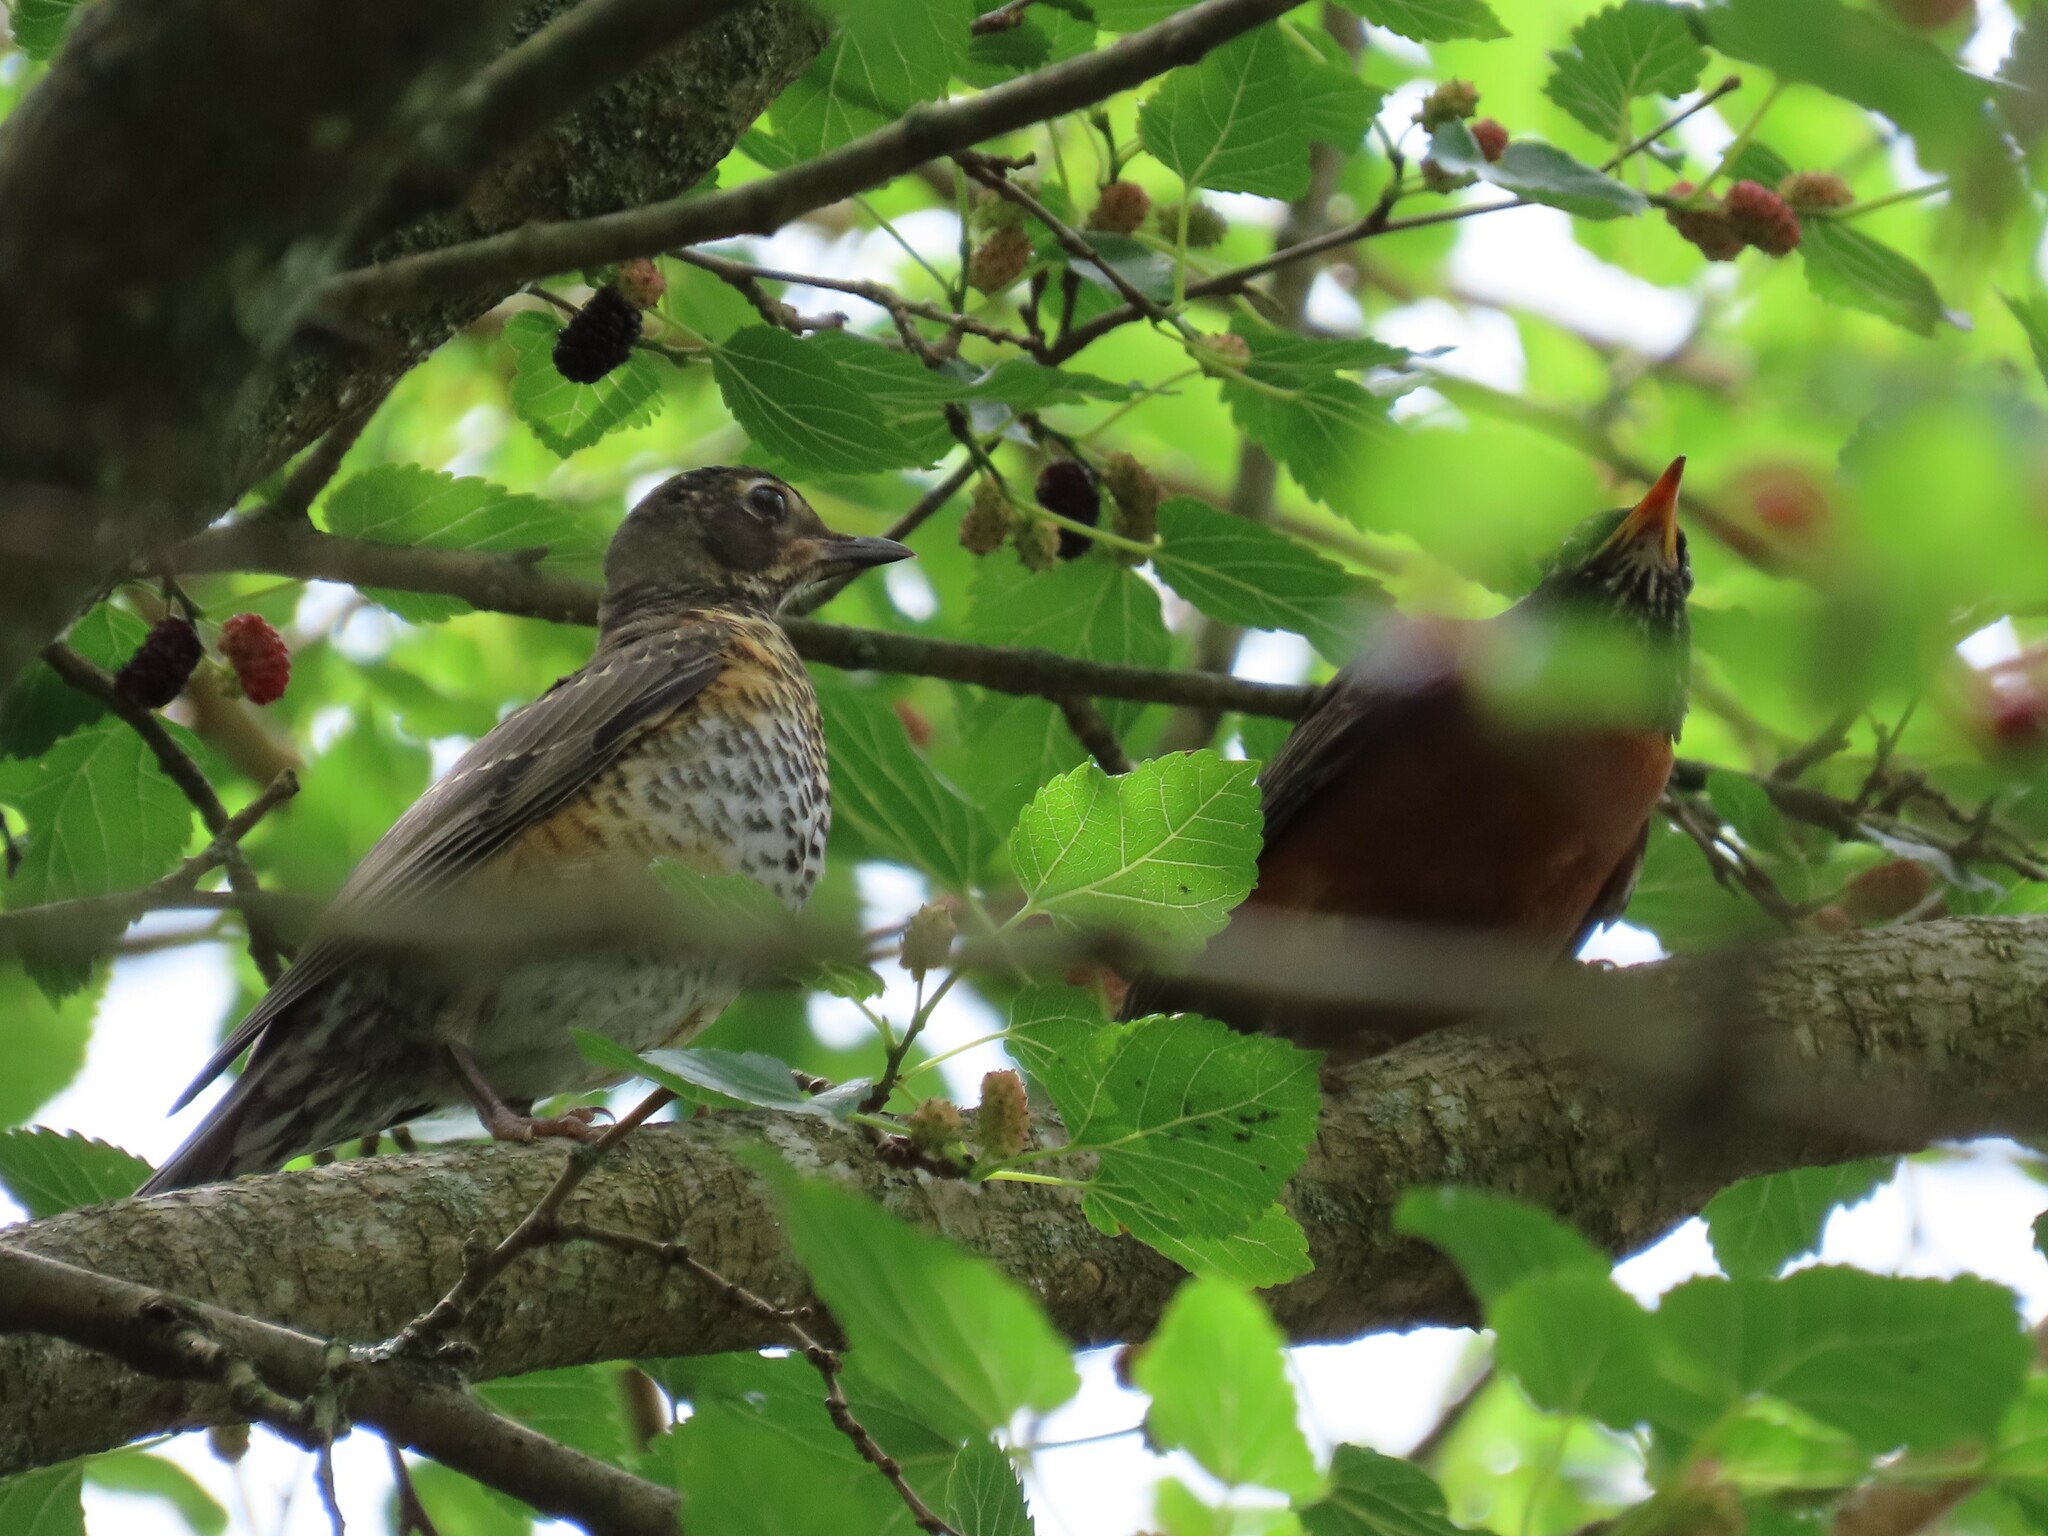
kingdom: Animalia
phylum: Chordata
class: Aves
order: Passeriformes
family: Turdidae
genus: Turdus
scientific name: Turdus migratorius
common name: American robin
